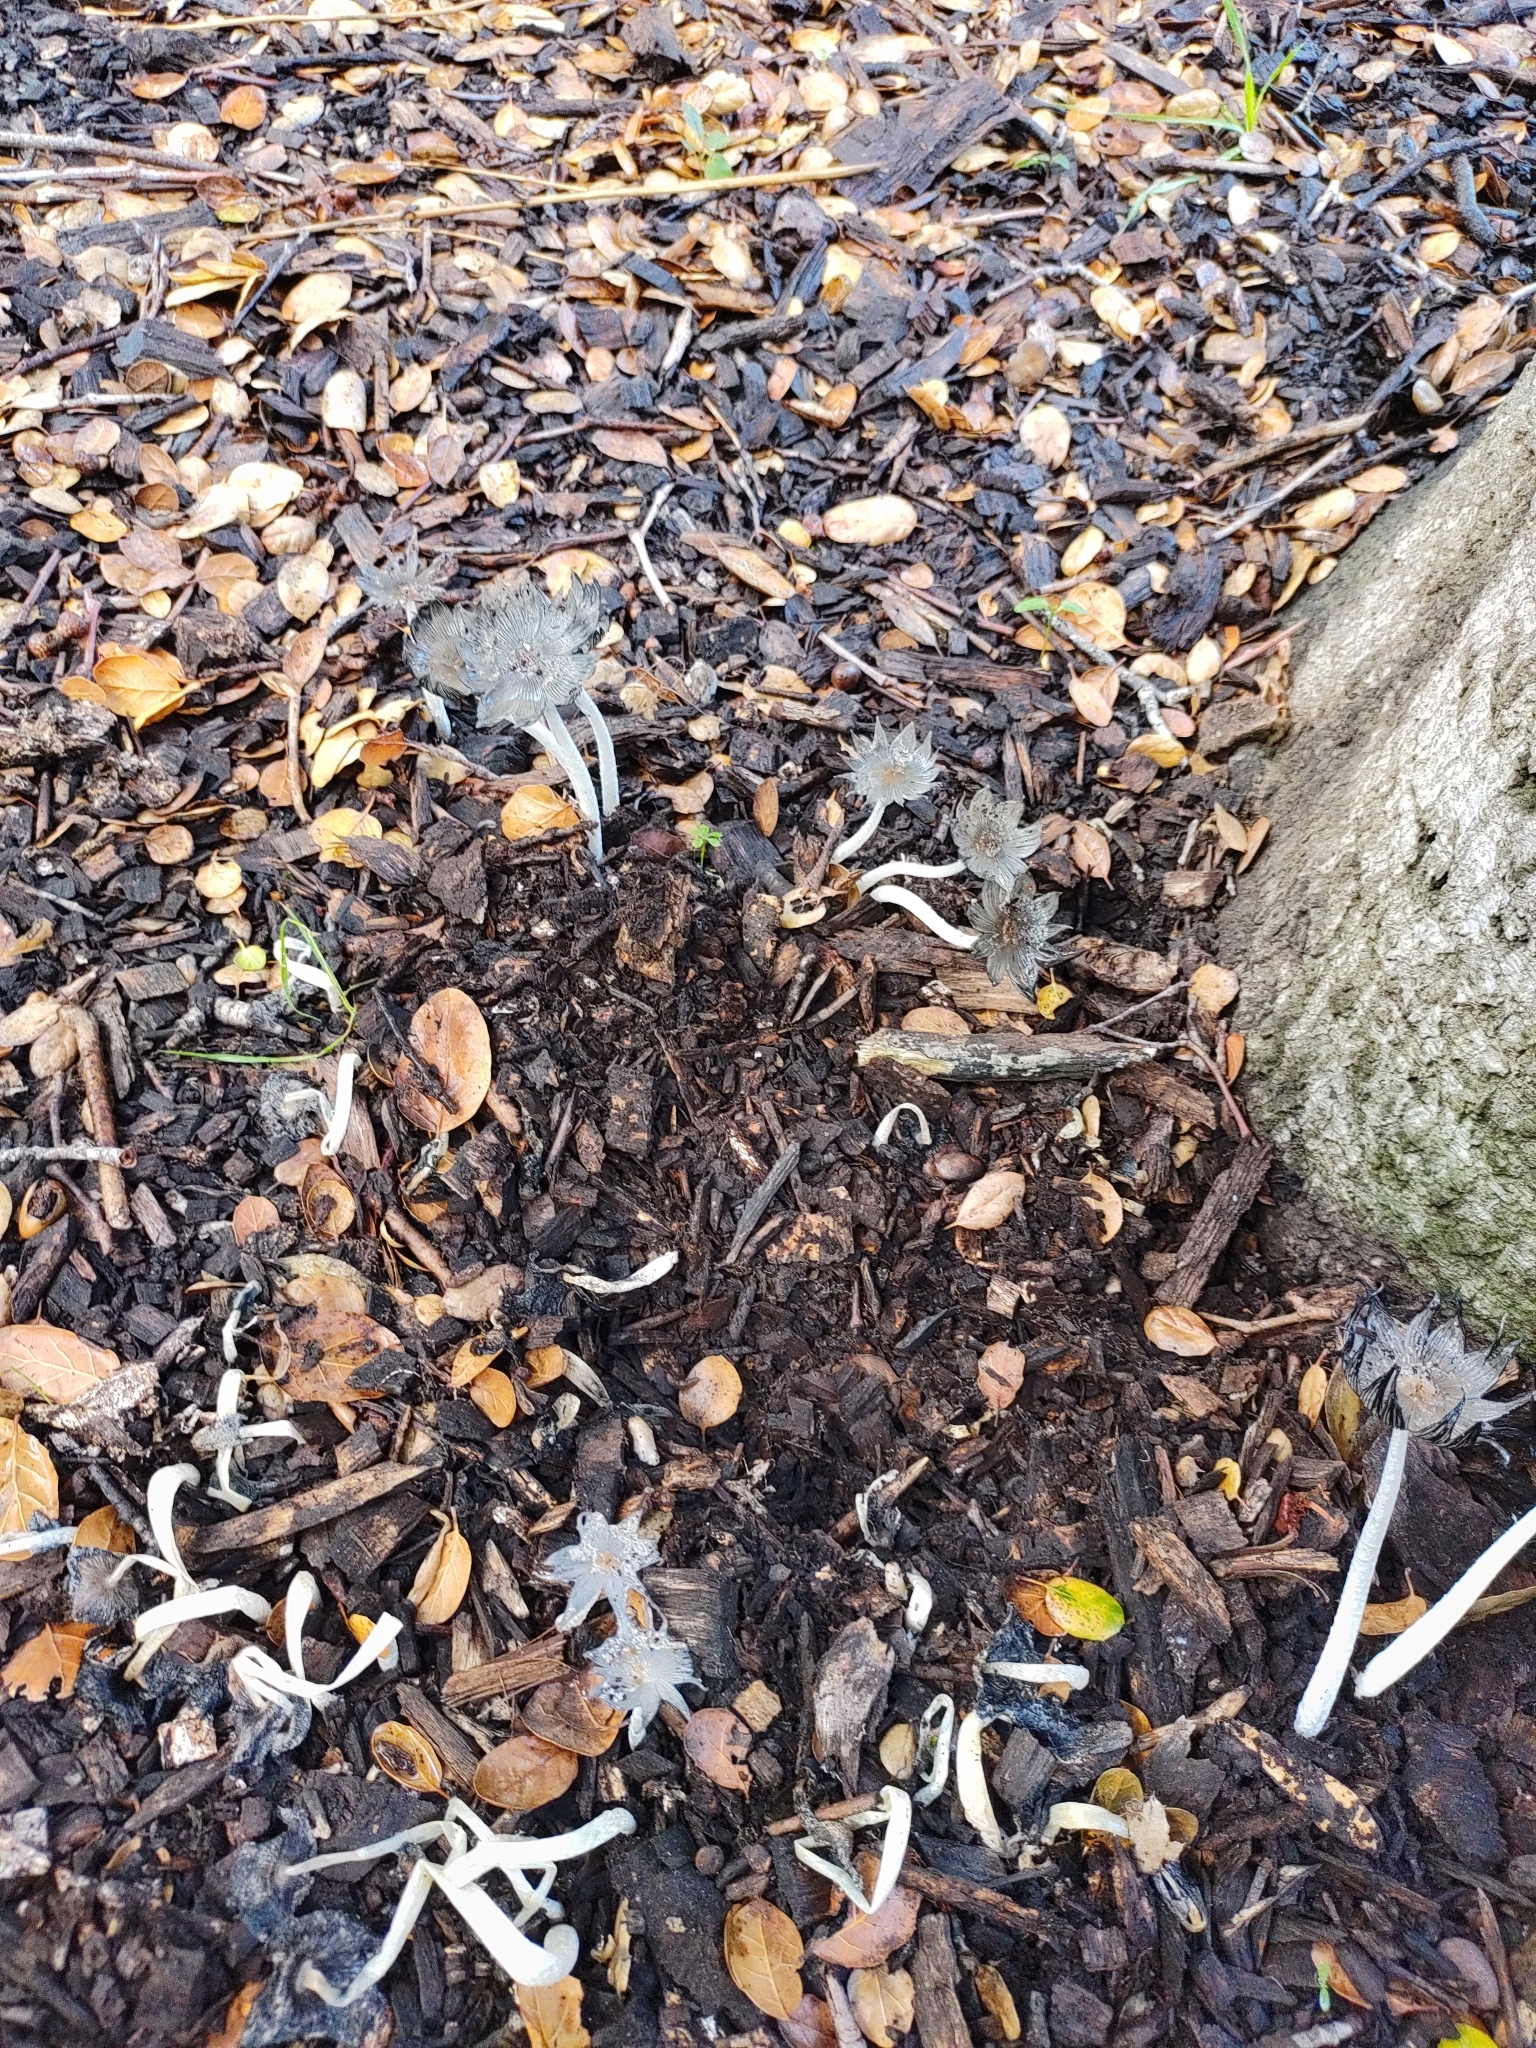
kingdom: Fungi
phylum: Basidiomycota
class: Agaricomycetes
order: Agaricales
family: Psathyrellaceae
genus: Coprinopsis
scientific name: Coprinopsis lagopus
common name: Hare'sfoot inkcap
